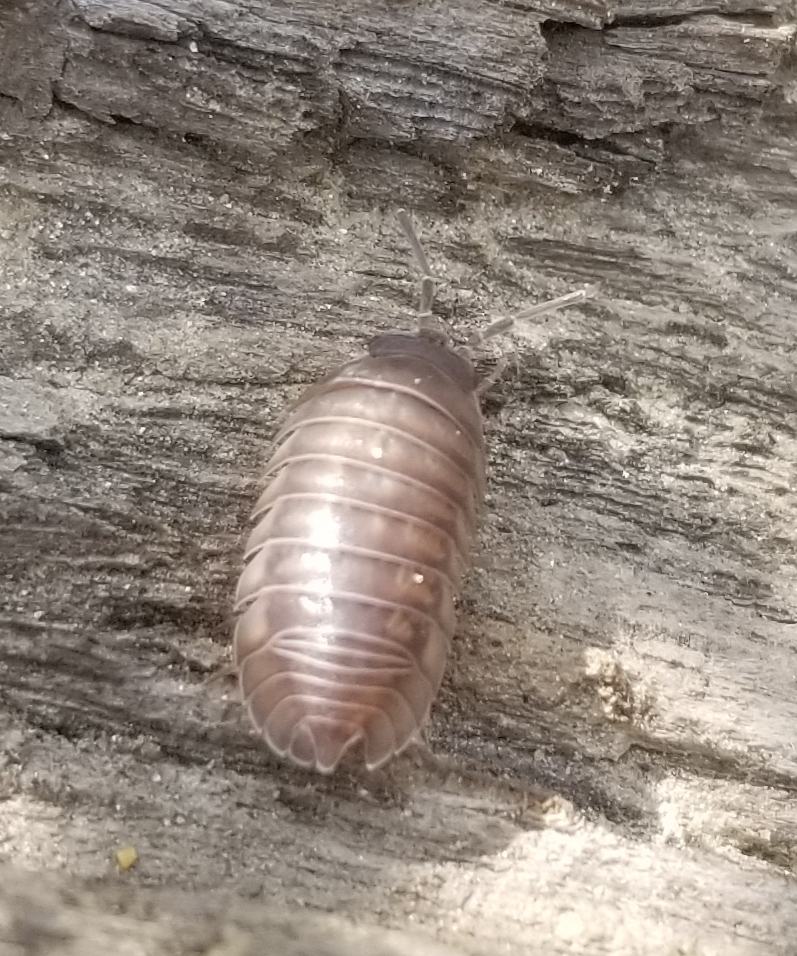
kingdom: Animalia
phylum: Arthropoda
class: Malacostraca
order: Isopoda
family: Armadillidiidae
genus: Armadillidium
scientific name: Armadillidium nasatum
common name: Isopod
